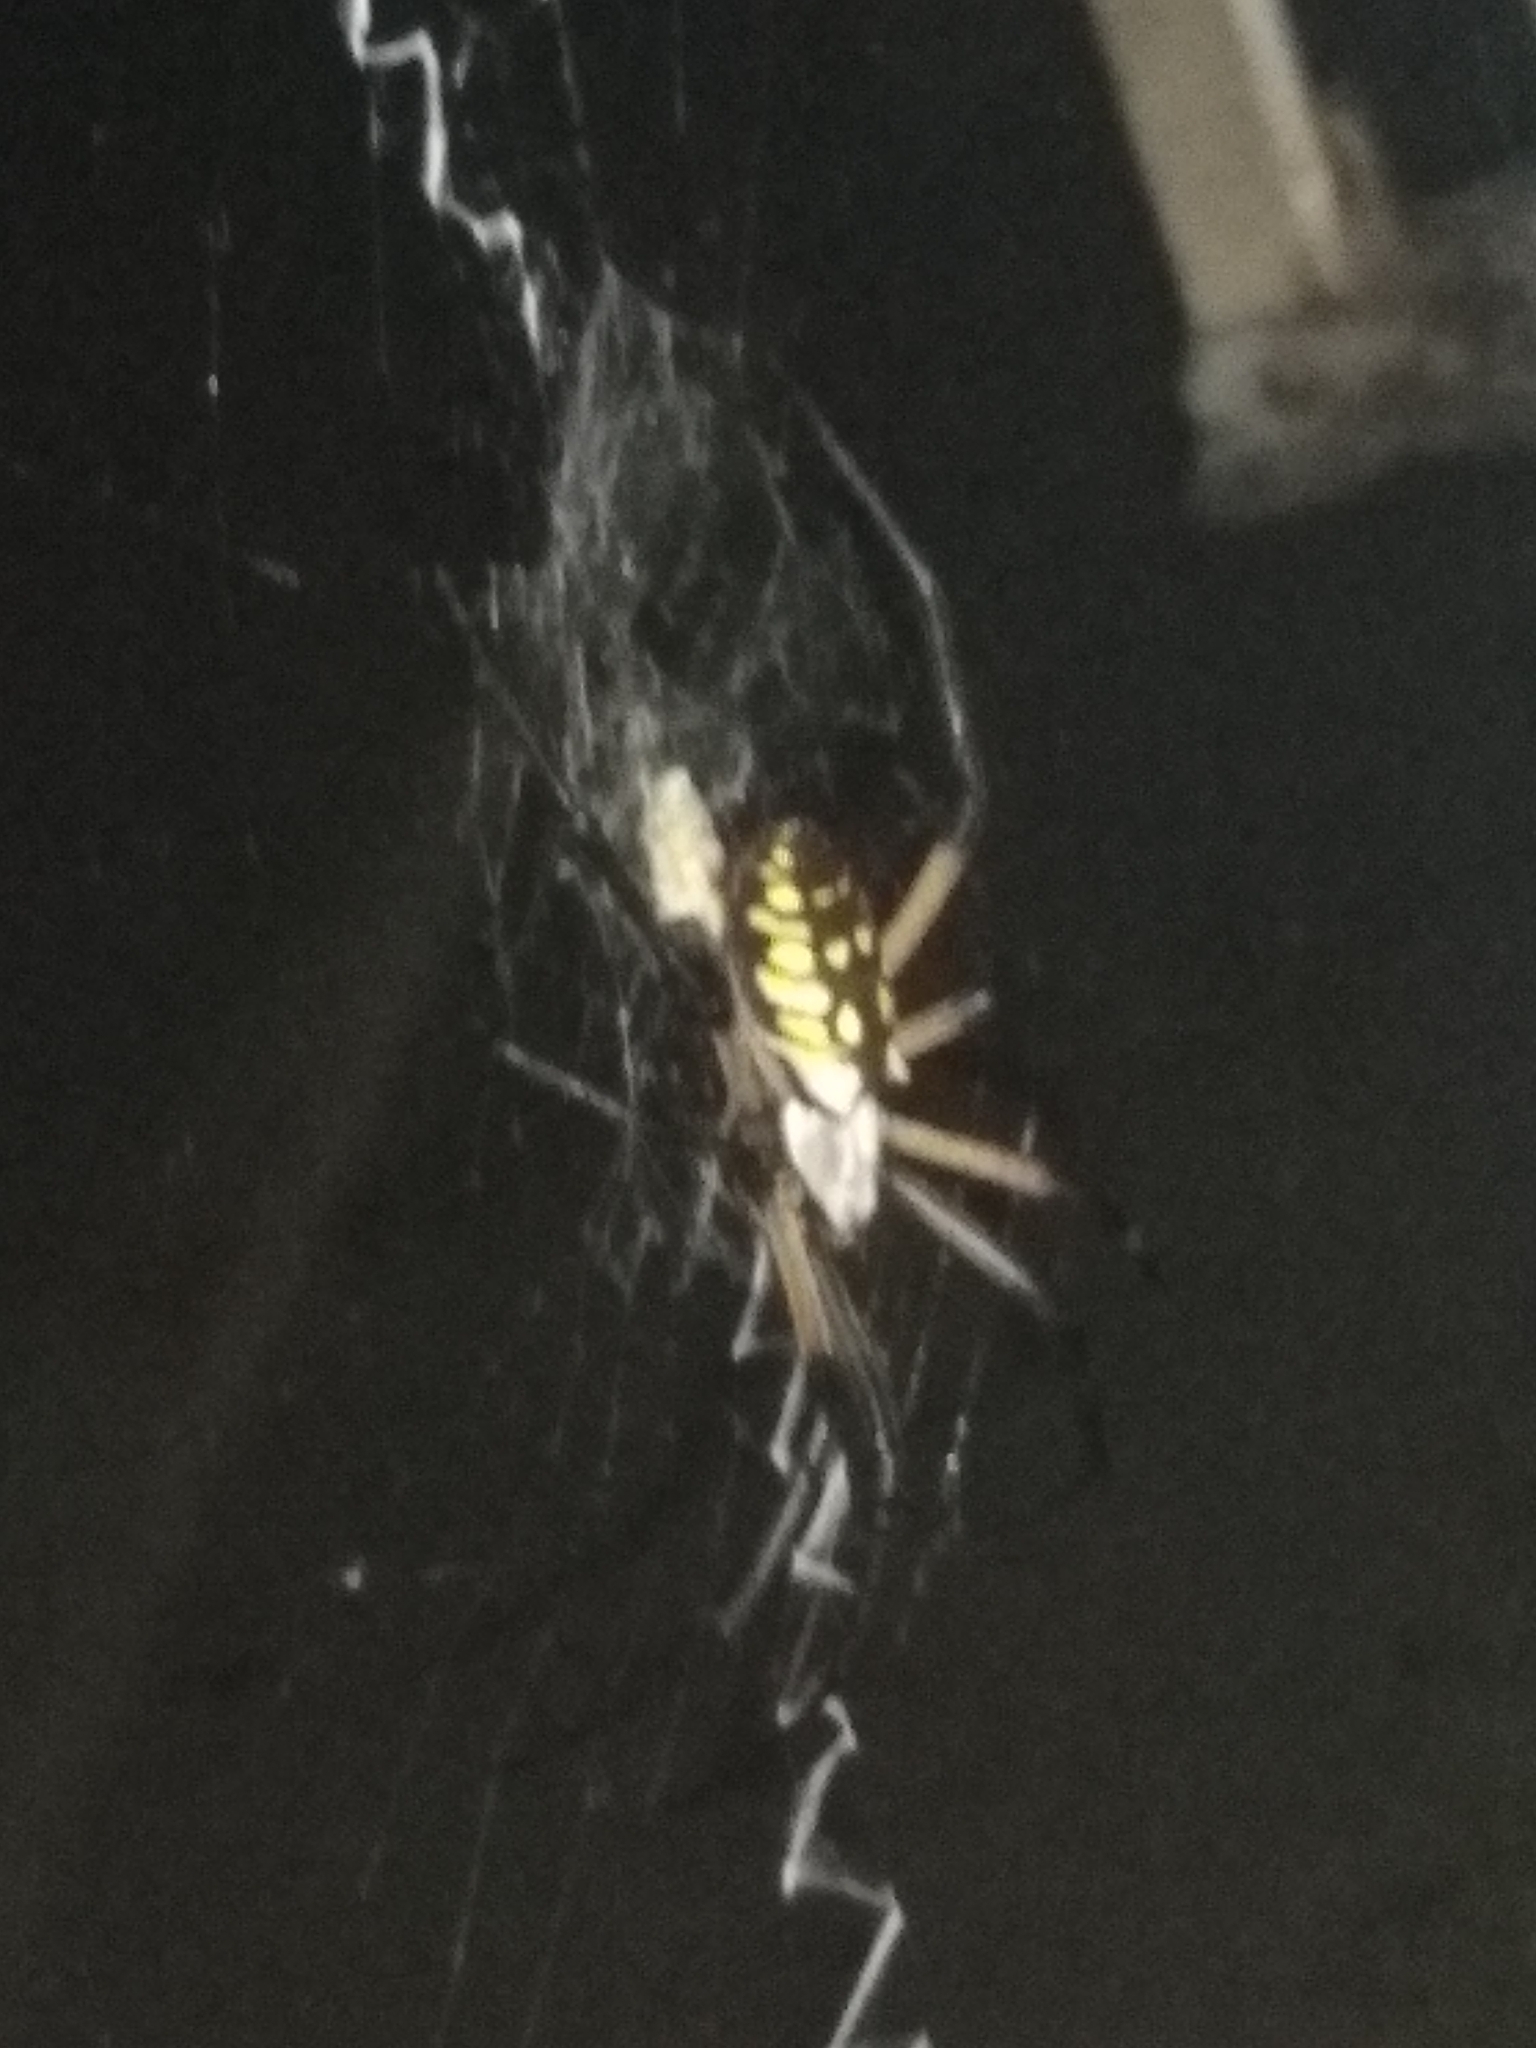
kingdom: Animalia
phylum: Arthropoda
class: Arachnida
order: Araneae
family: Araneidae
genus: Argiope
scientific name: Argiope aurantia
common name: Orb weavers
